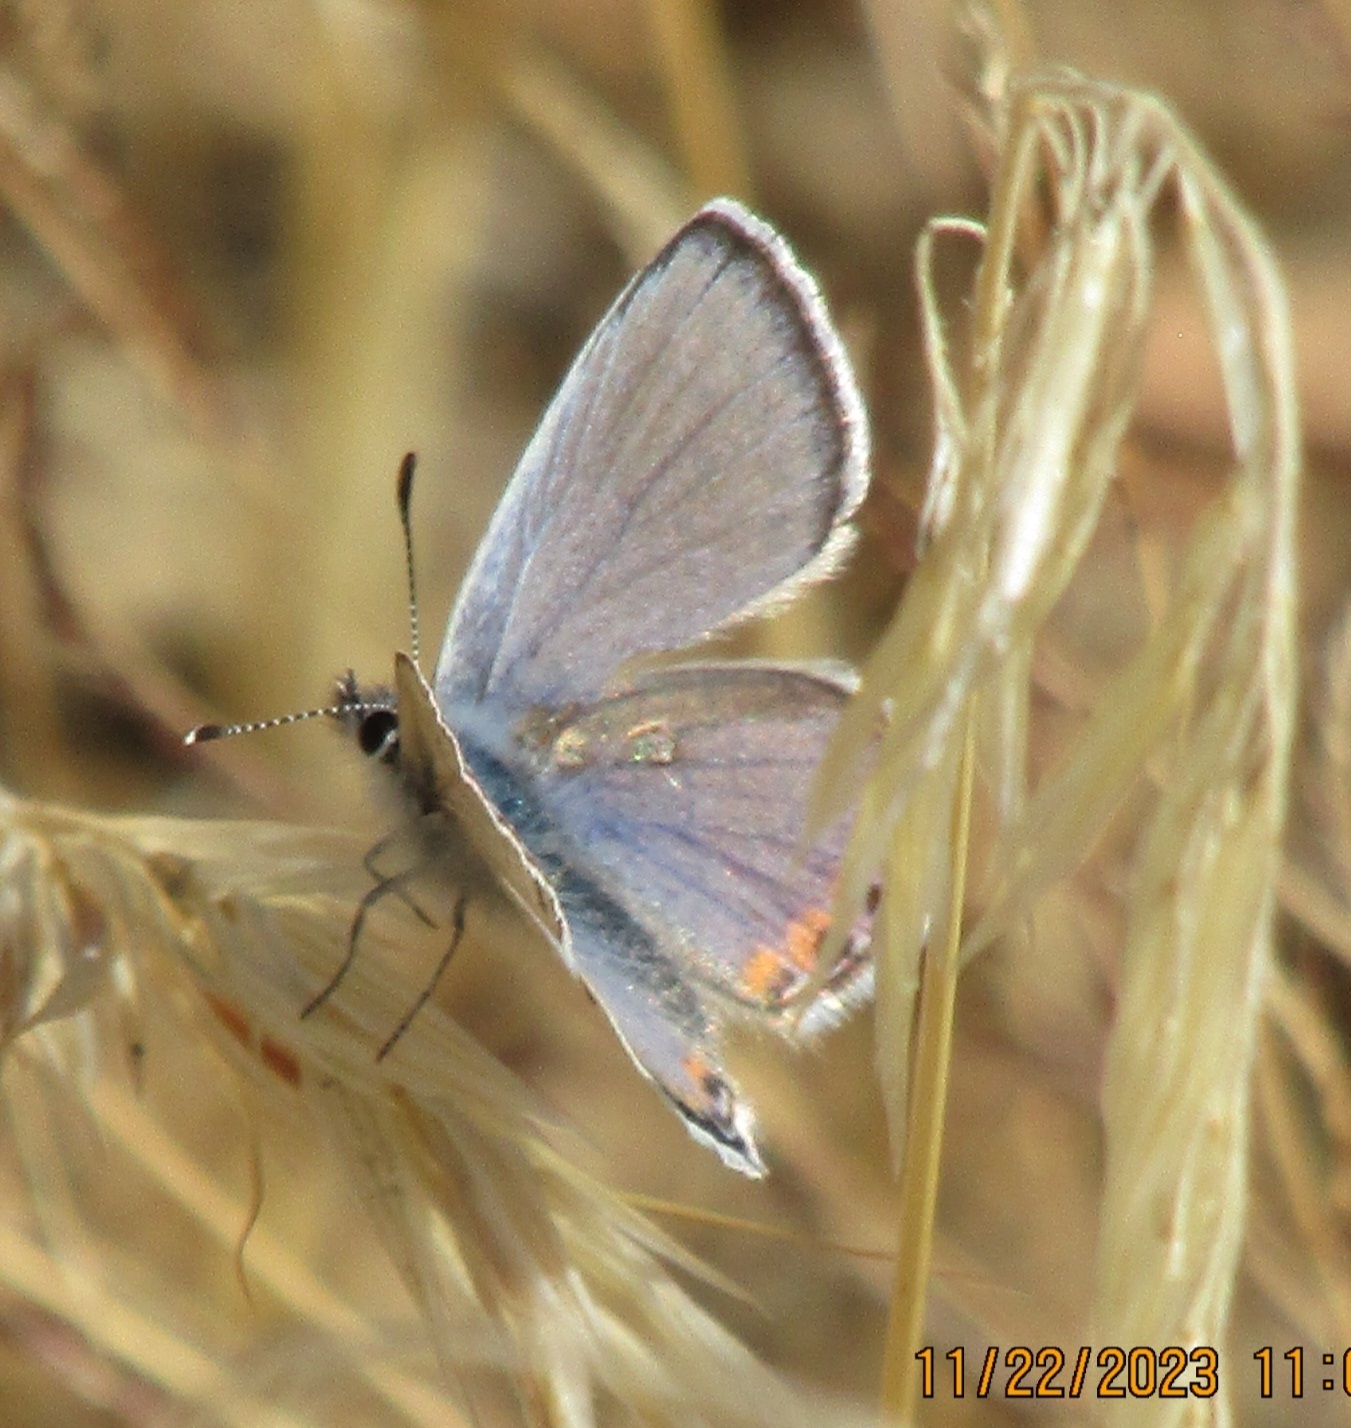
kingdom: Animalia
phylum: Arthropoda
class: Insecta
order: Lepidoptera
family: Lycaenidae
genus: Icaricia
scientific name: Icaricia acmon
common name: Acmon blue
